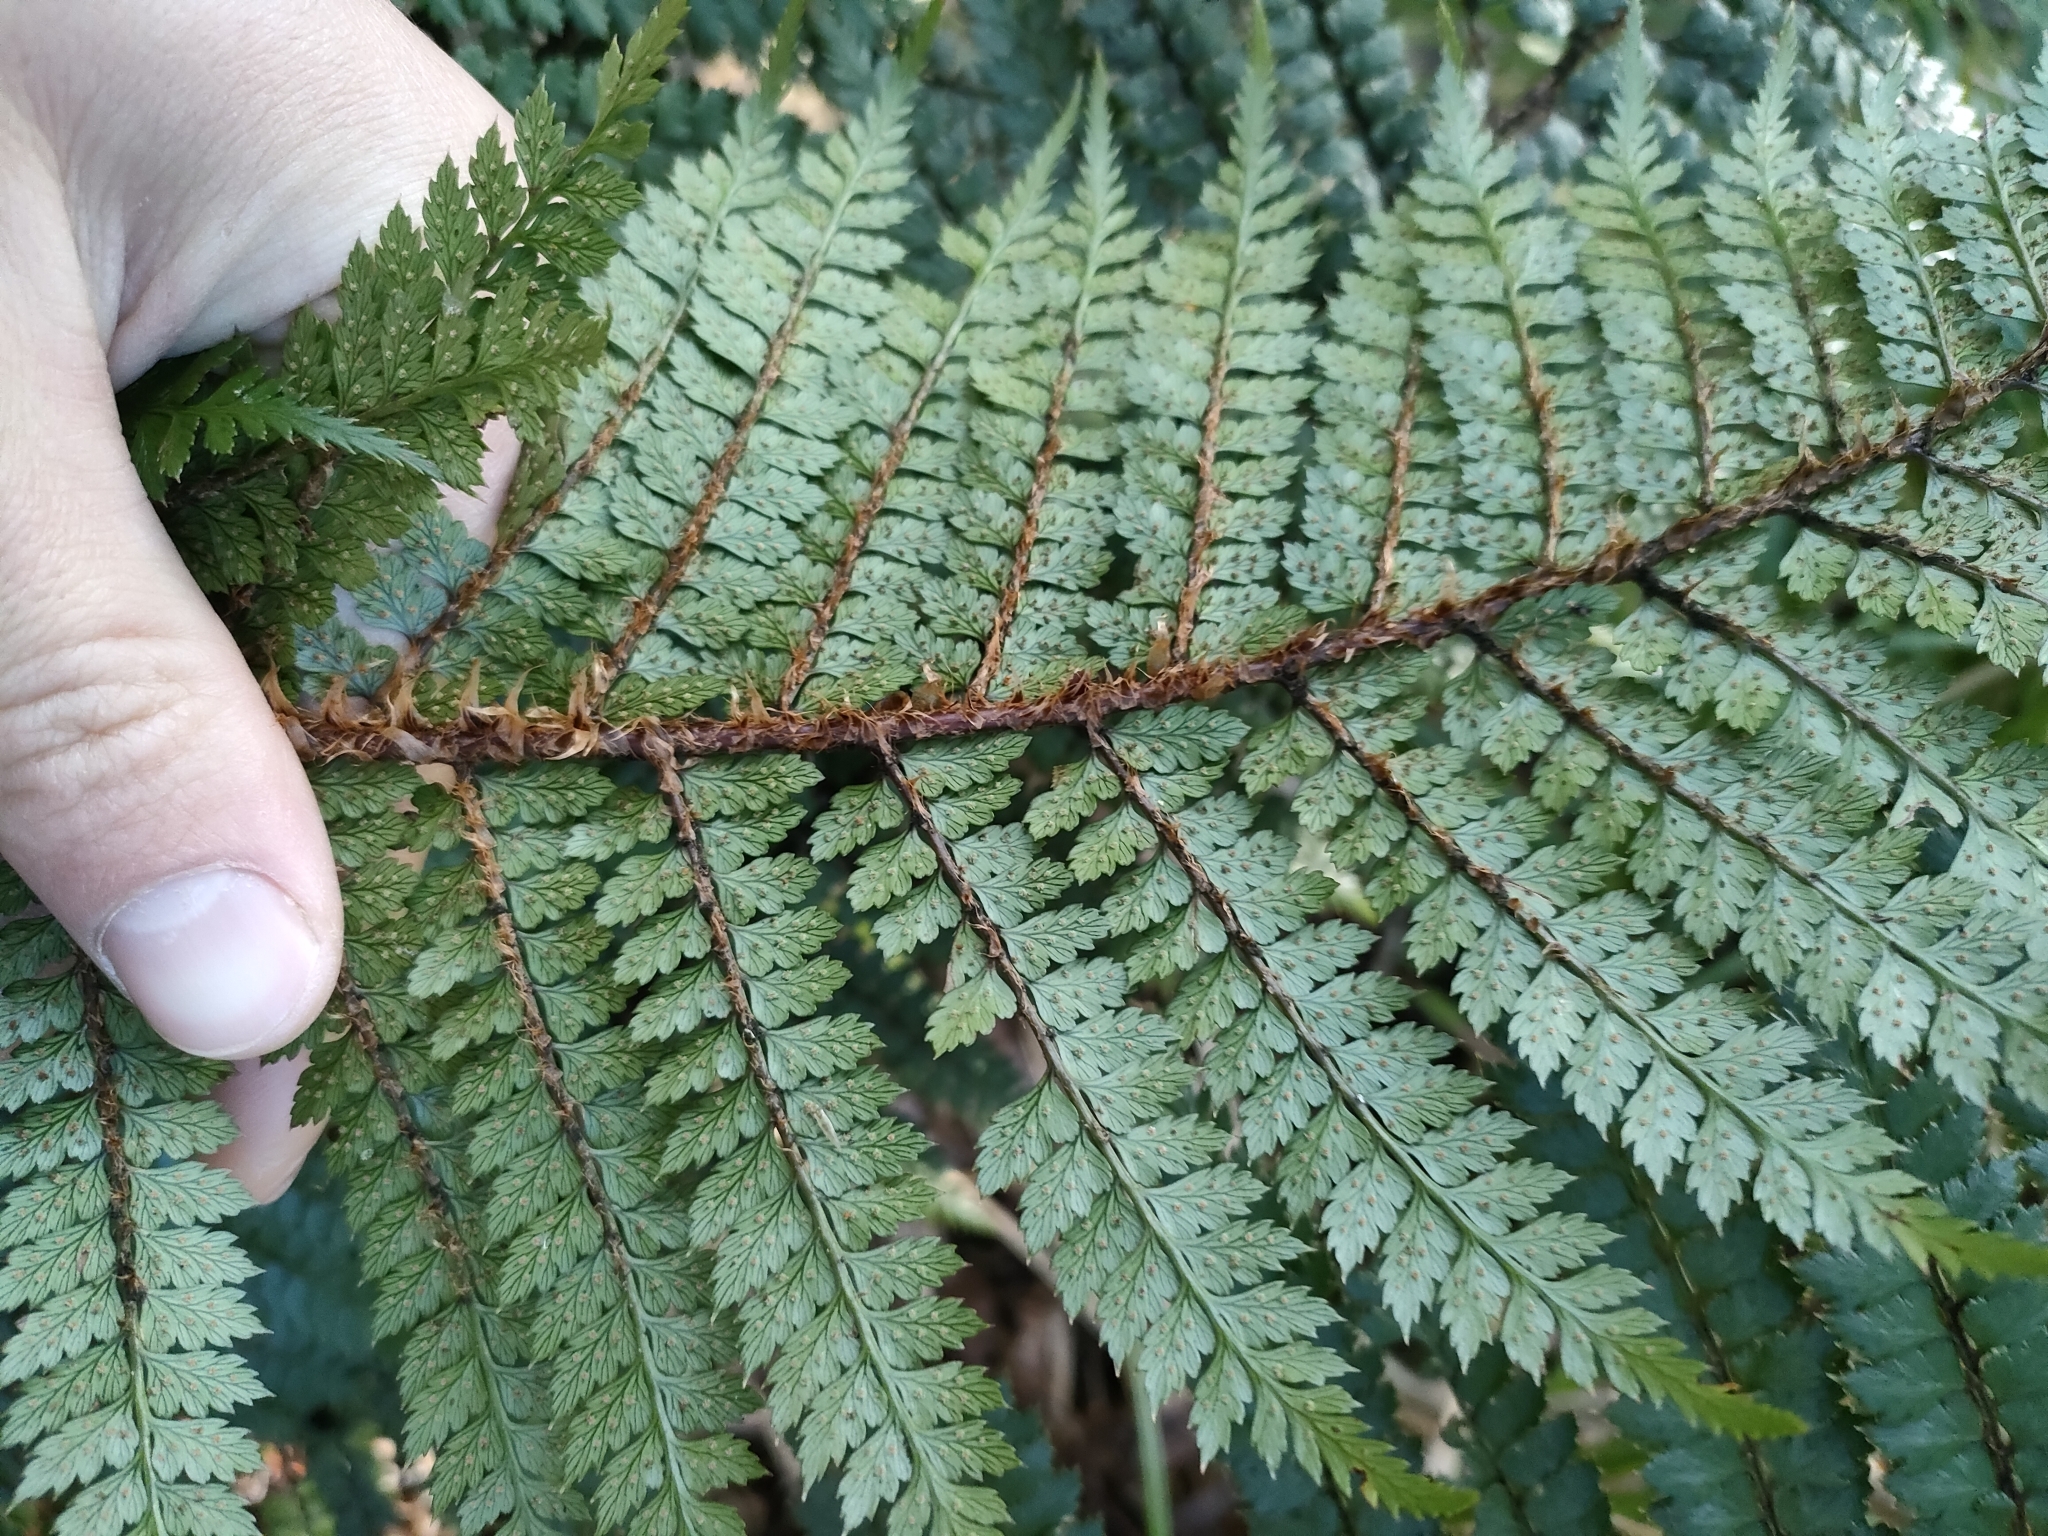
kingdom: Plantae
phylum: Tracheophyta
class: Polypodiopsida
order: Polypodiales
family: Dryopteridaceae
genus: Polystichum
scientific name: Polystichum vestitum
